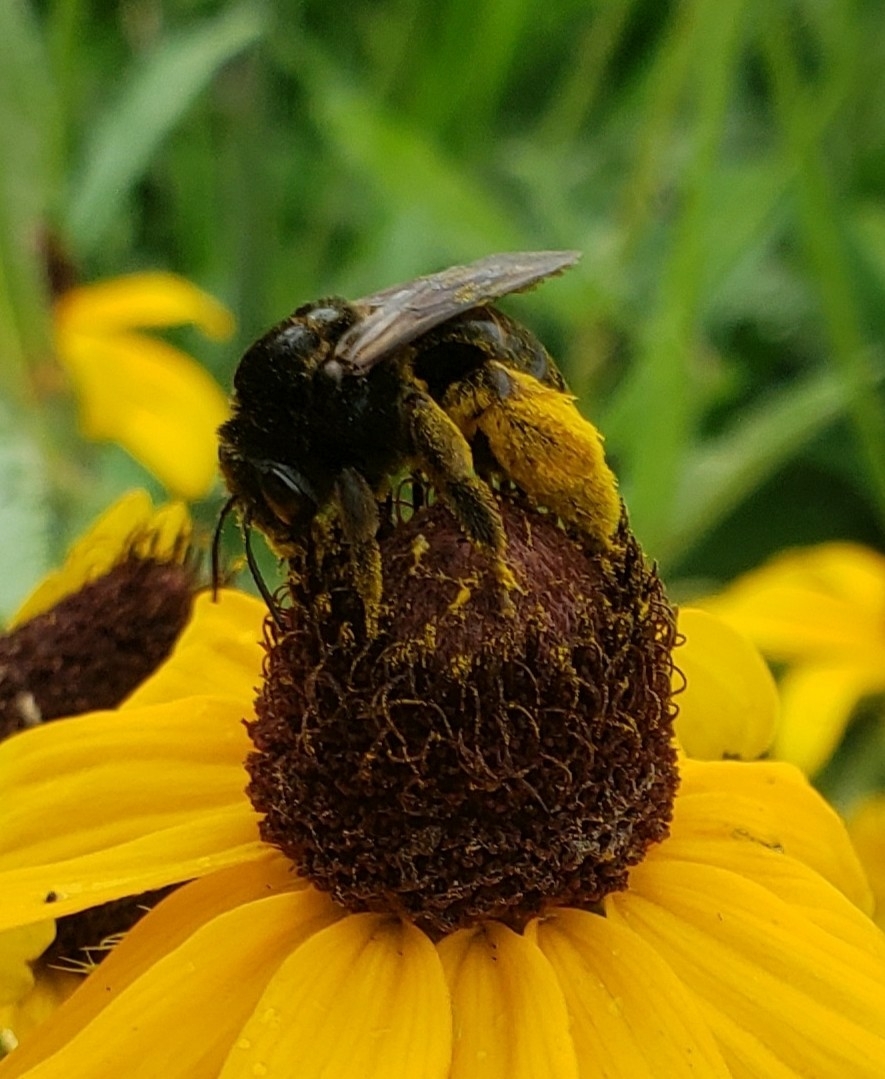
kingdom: Animalia
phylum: Arthropoda
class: Insecta
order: Hymenoptera
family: Apidae
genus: Melissodes
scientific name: Melissodes bimaculatus
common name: Two-spotted long-horned bee
